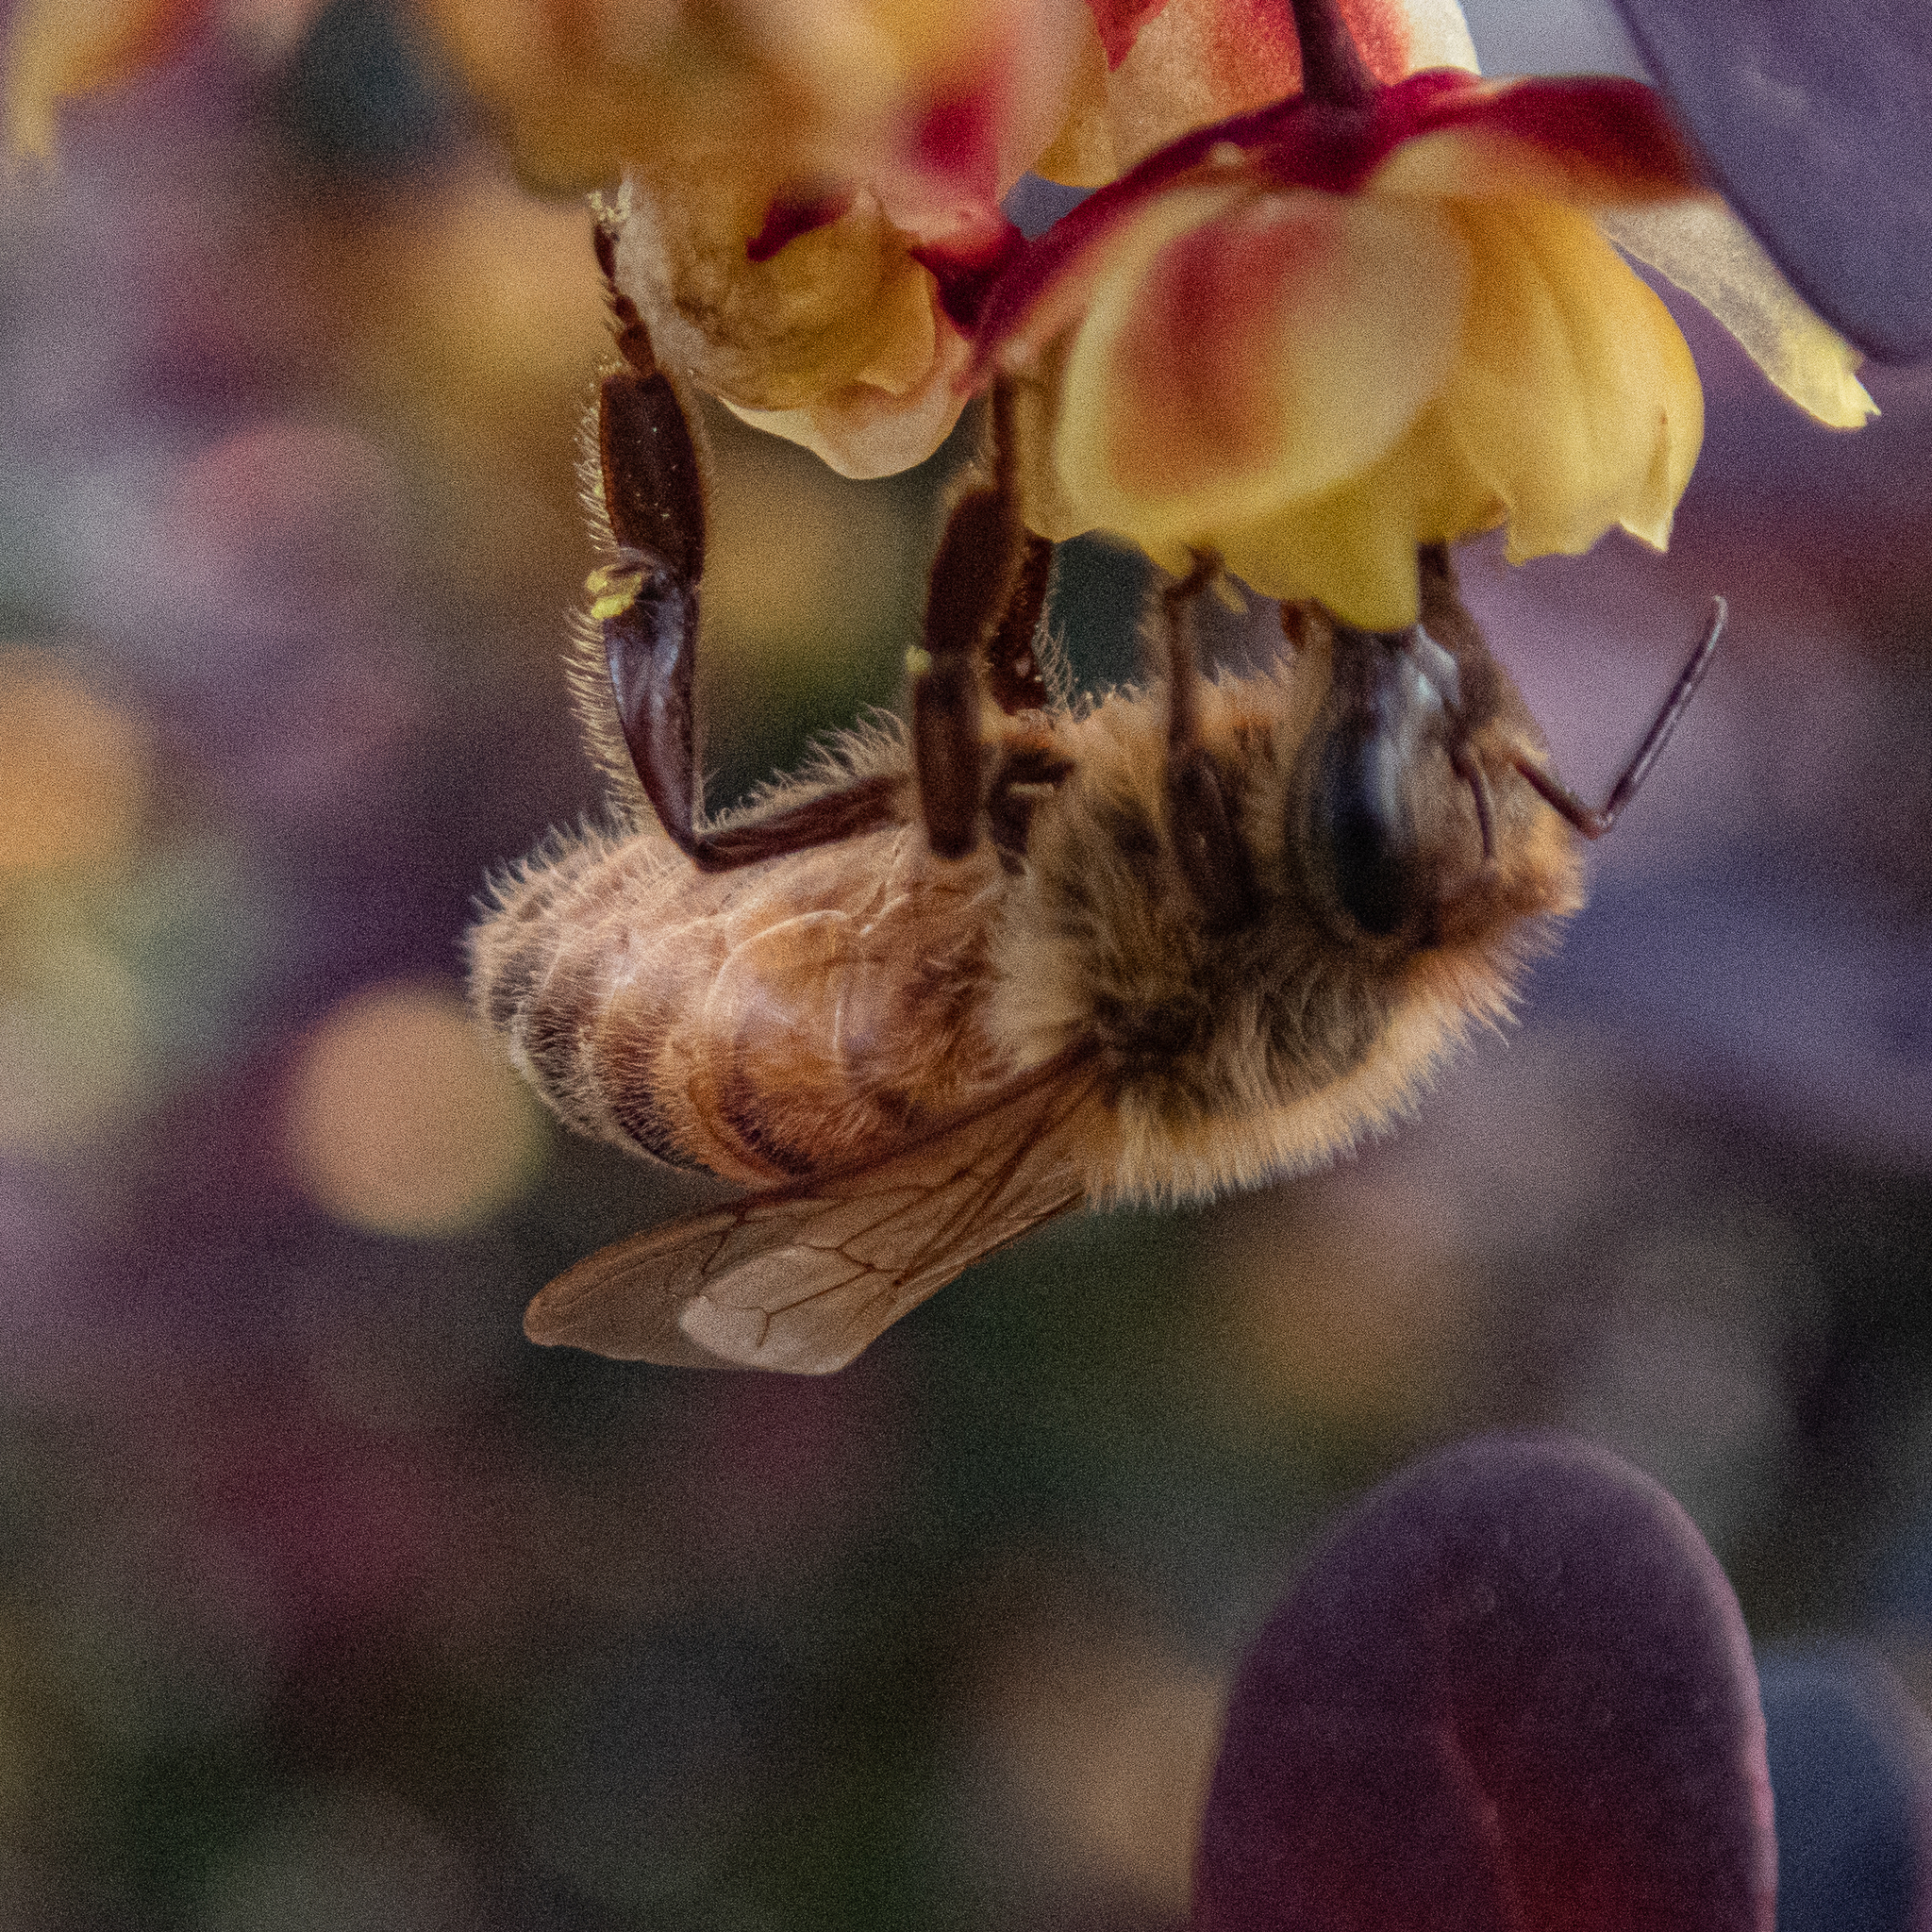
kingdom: Animalia
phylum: Arthropoda
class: Insecta
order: Hymenoptera
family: Apidae
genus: Apis
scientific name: Apis mellifera
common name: Honey bee
